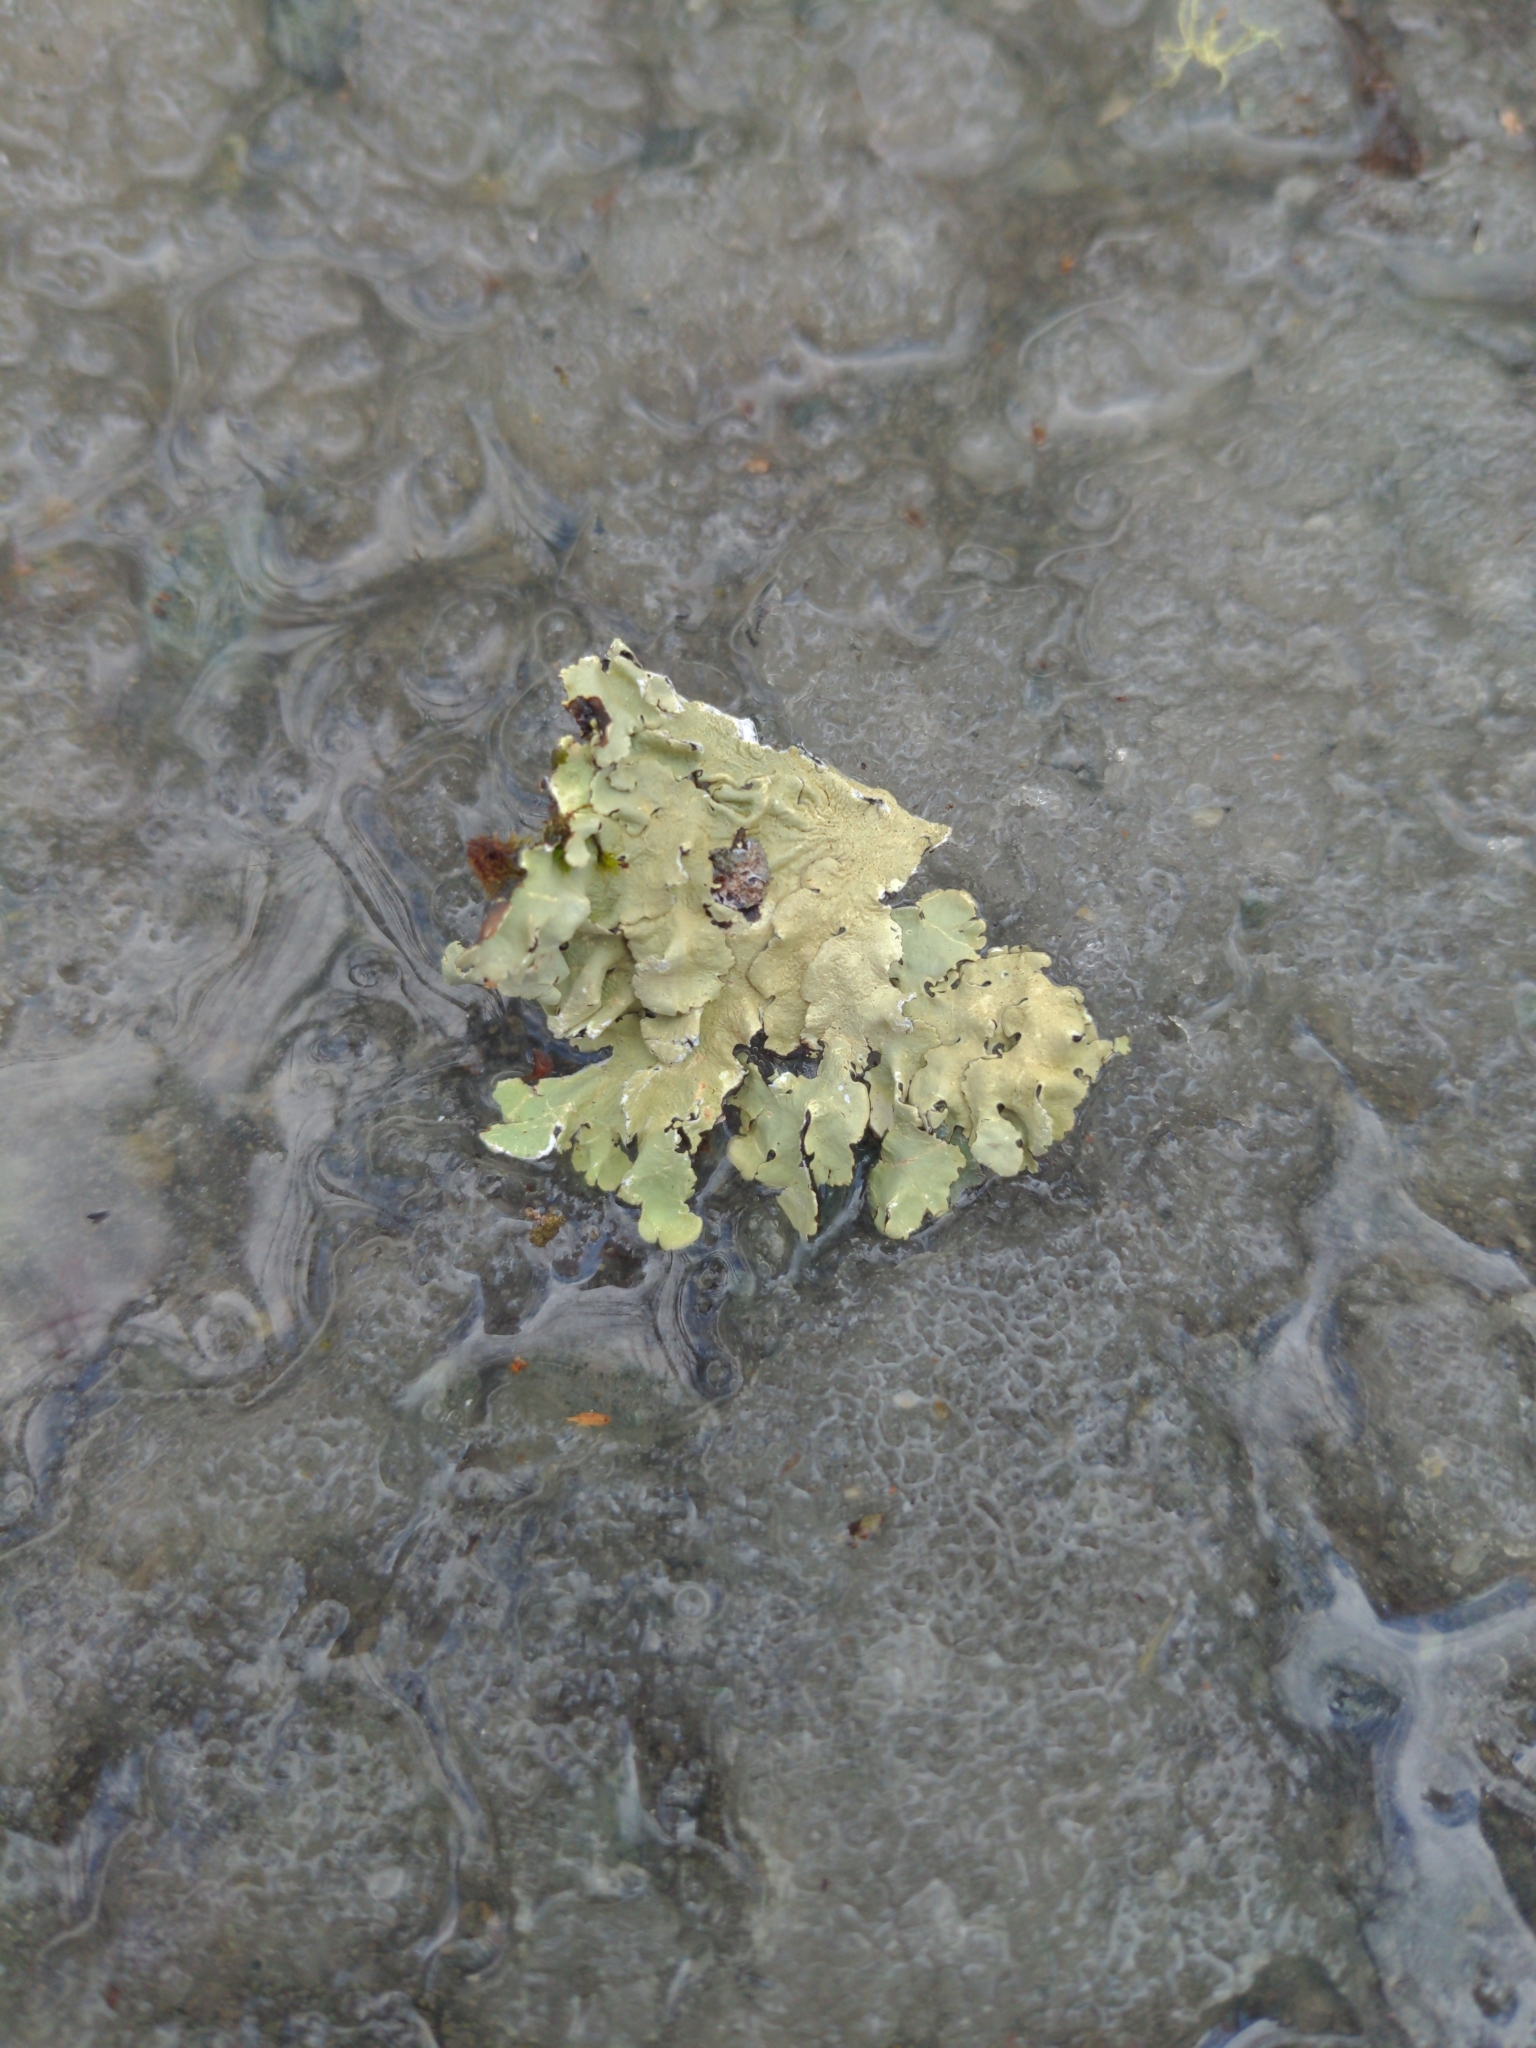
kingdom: Fungi
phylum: Ascomycota
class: Lecanoromycetes
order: Lecanorales
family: Parmeliaceae
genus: Flavoparmelia
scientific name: Flavoparmelia caperata
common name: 40-mile per hour lichen
